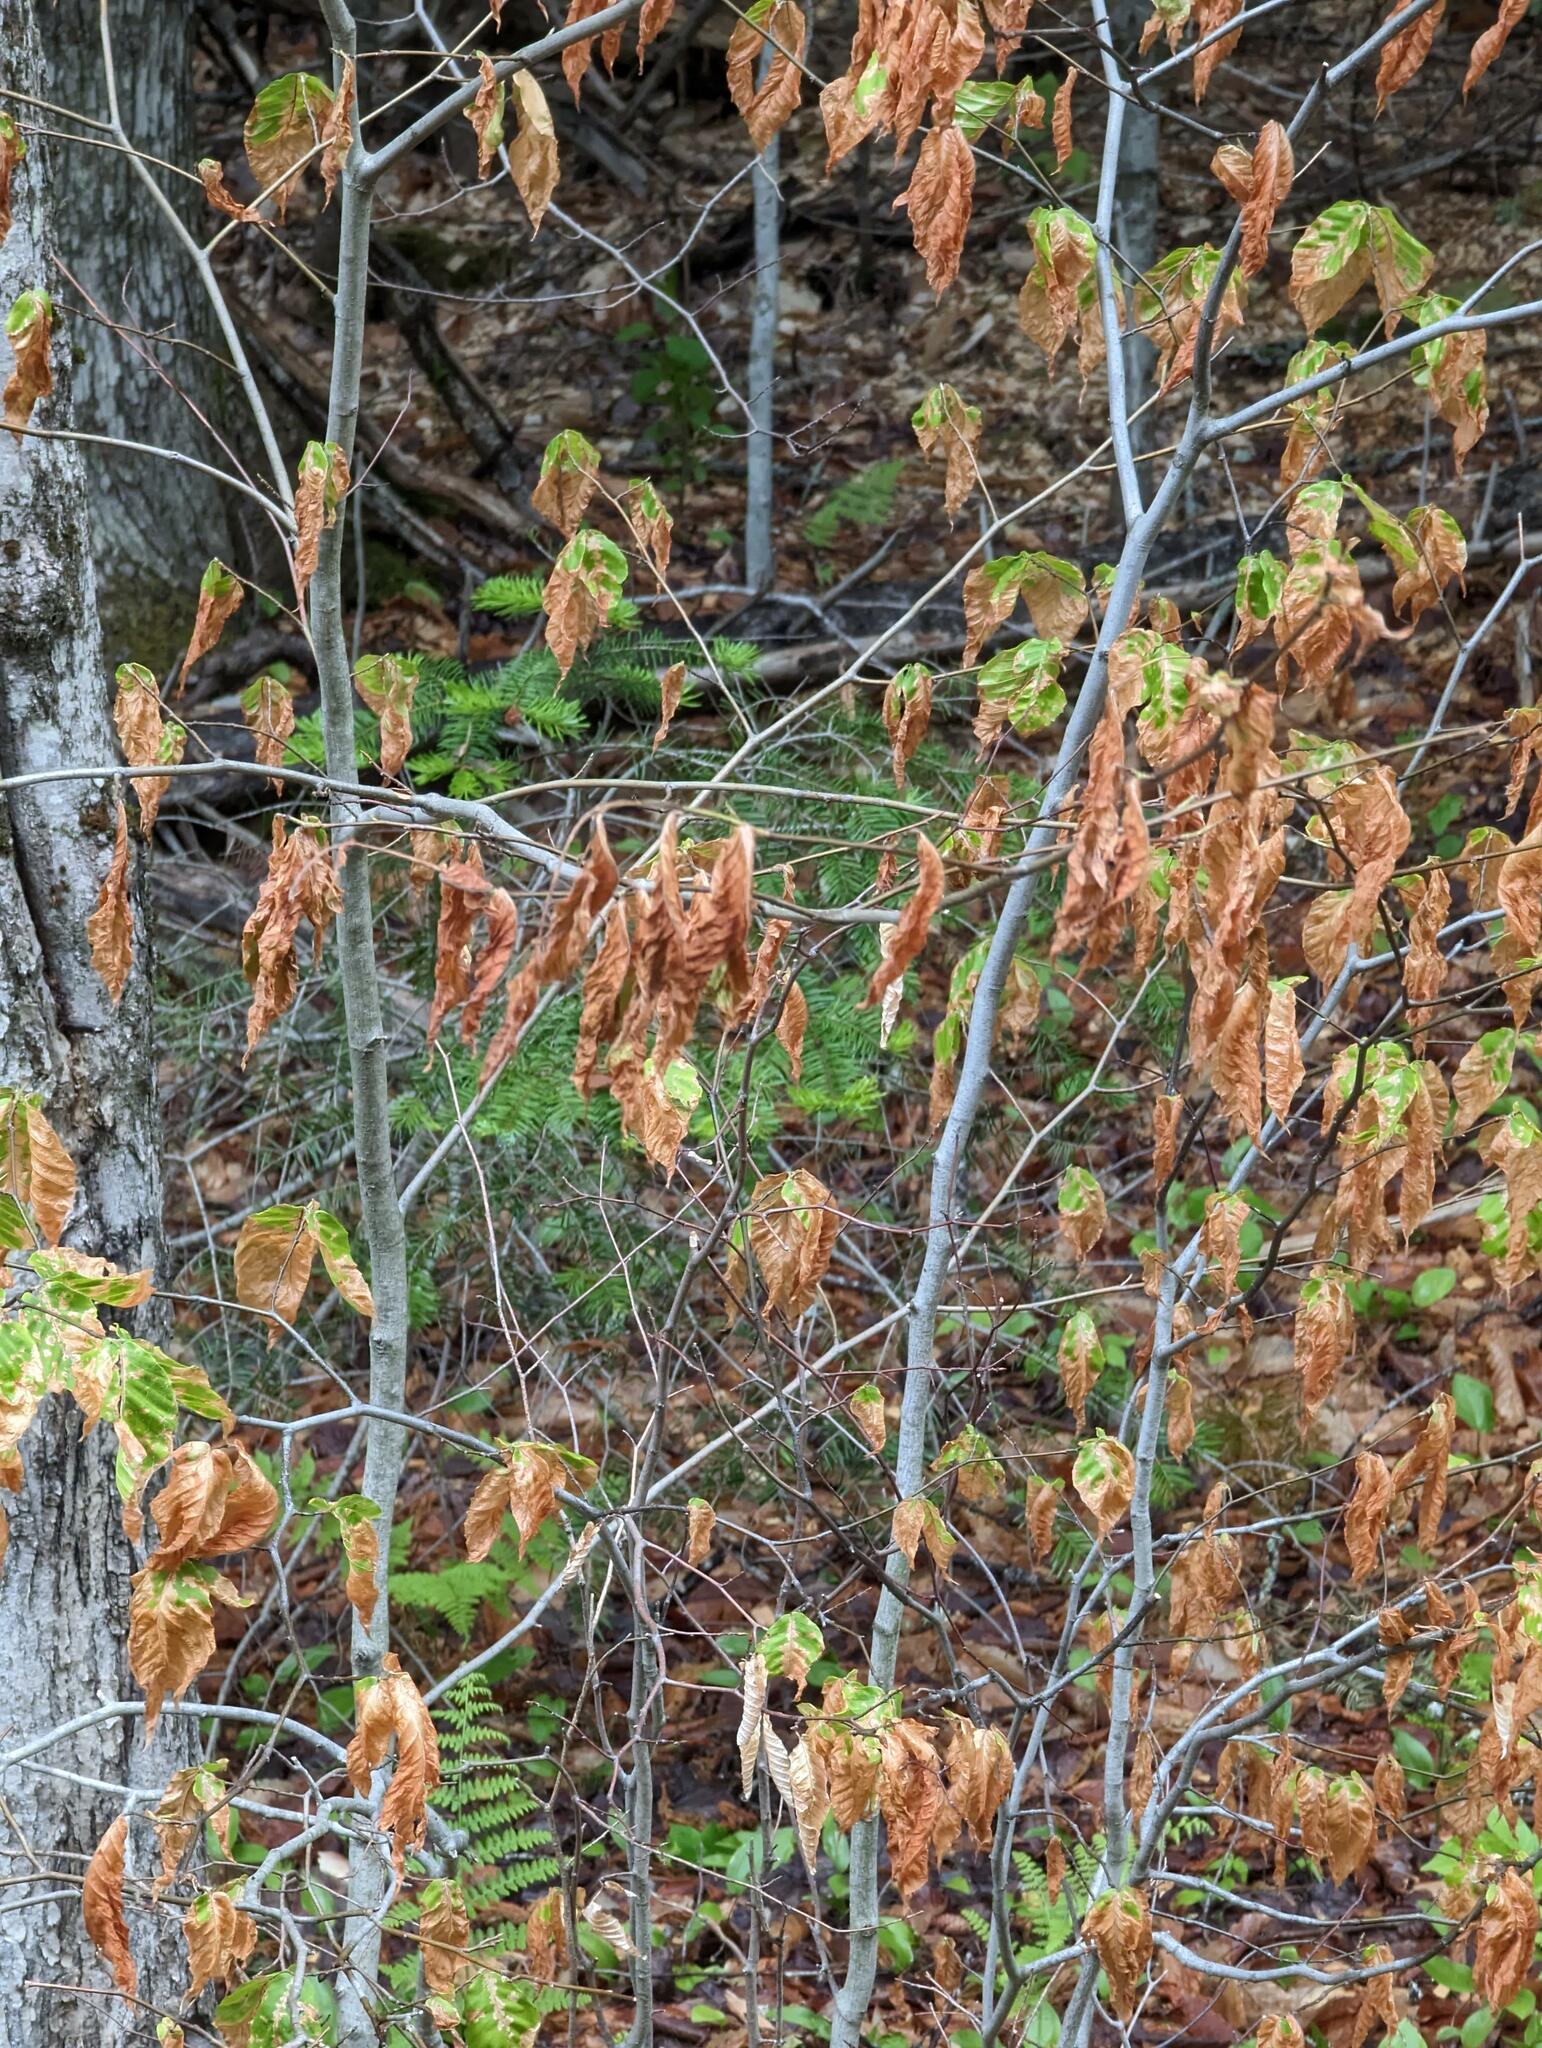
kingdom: Plantae
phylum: Tracheophyta
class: Magnoliopsida
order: Fagales
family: Fagaceae
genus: Fagus
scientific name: Fagus grandifolia
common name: American beech
